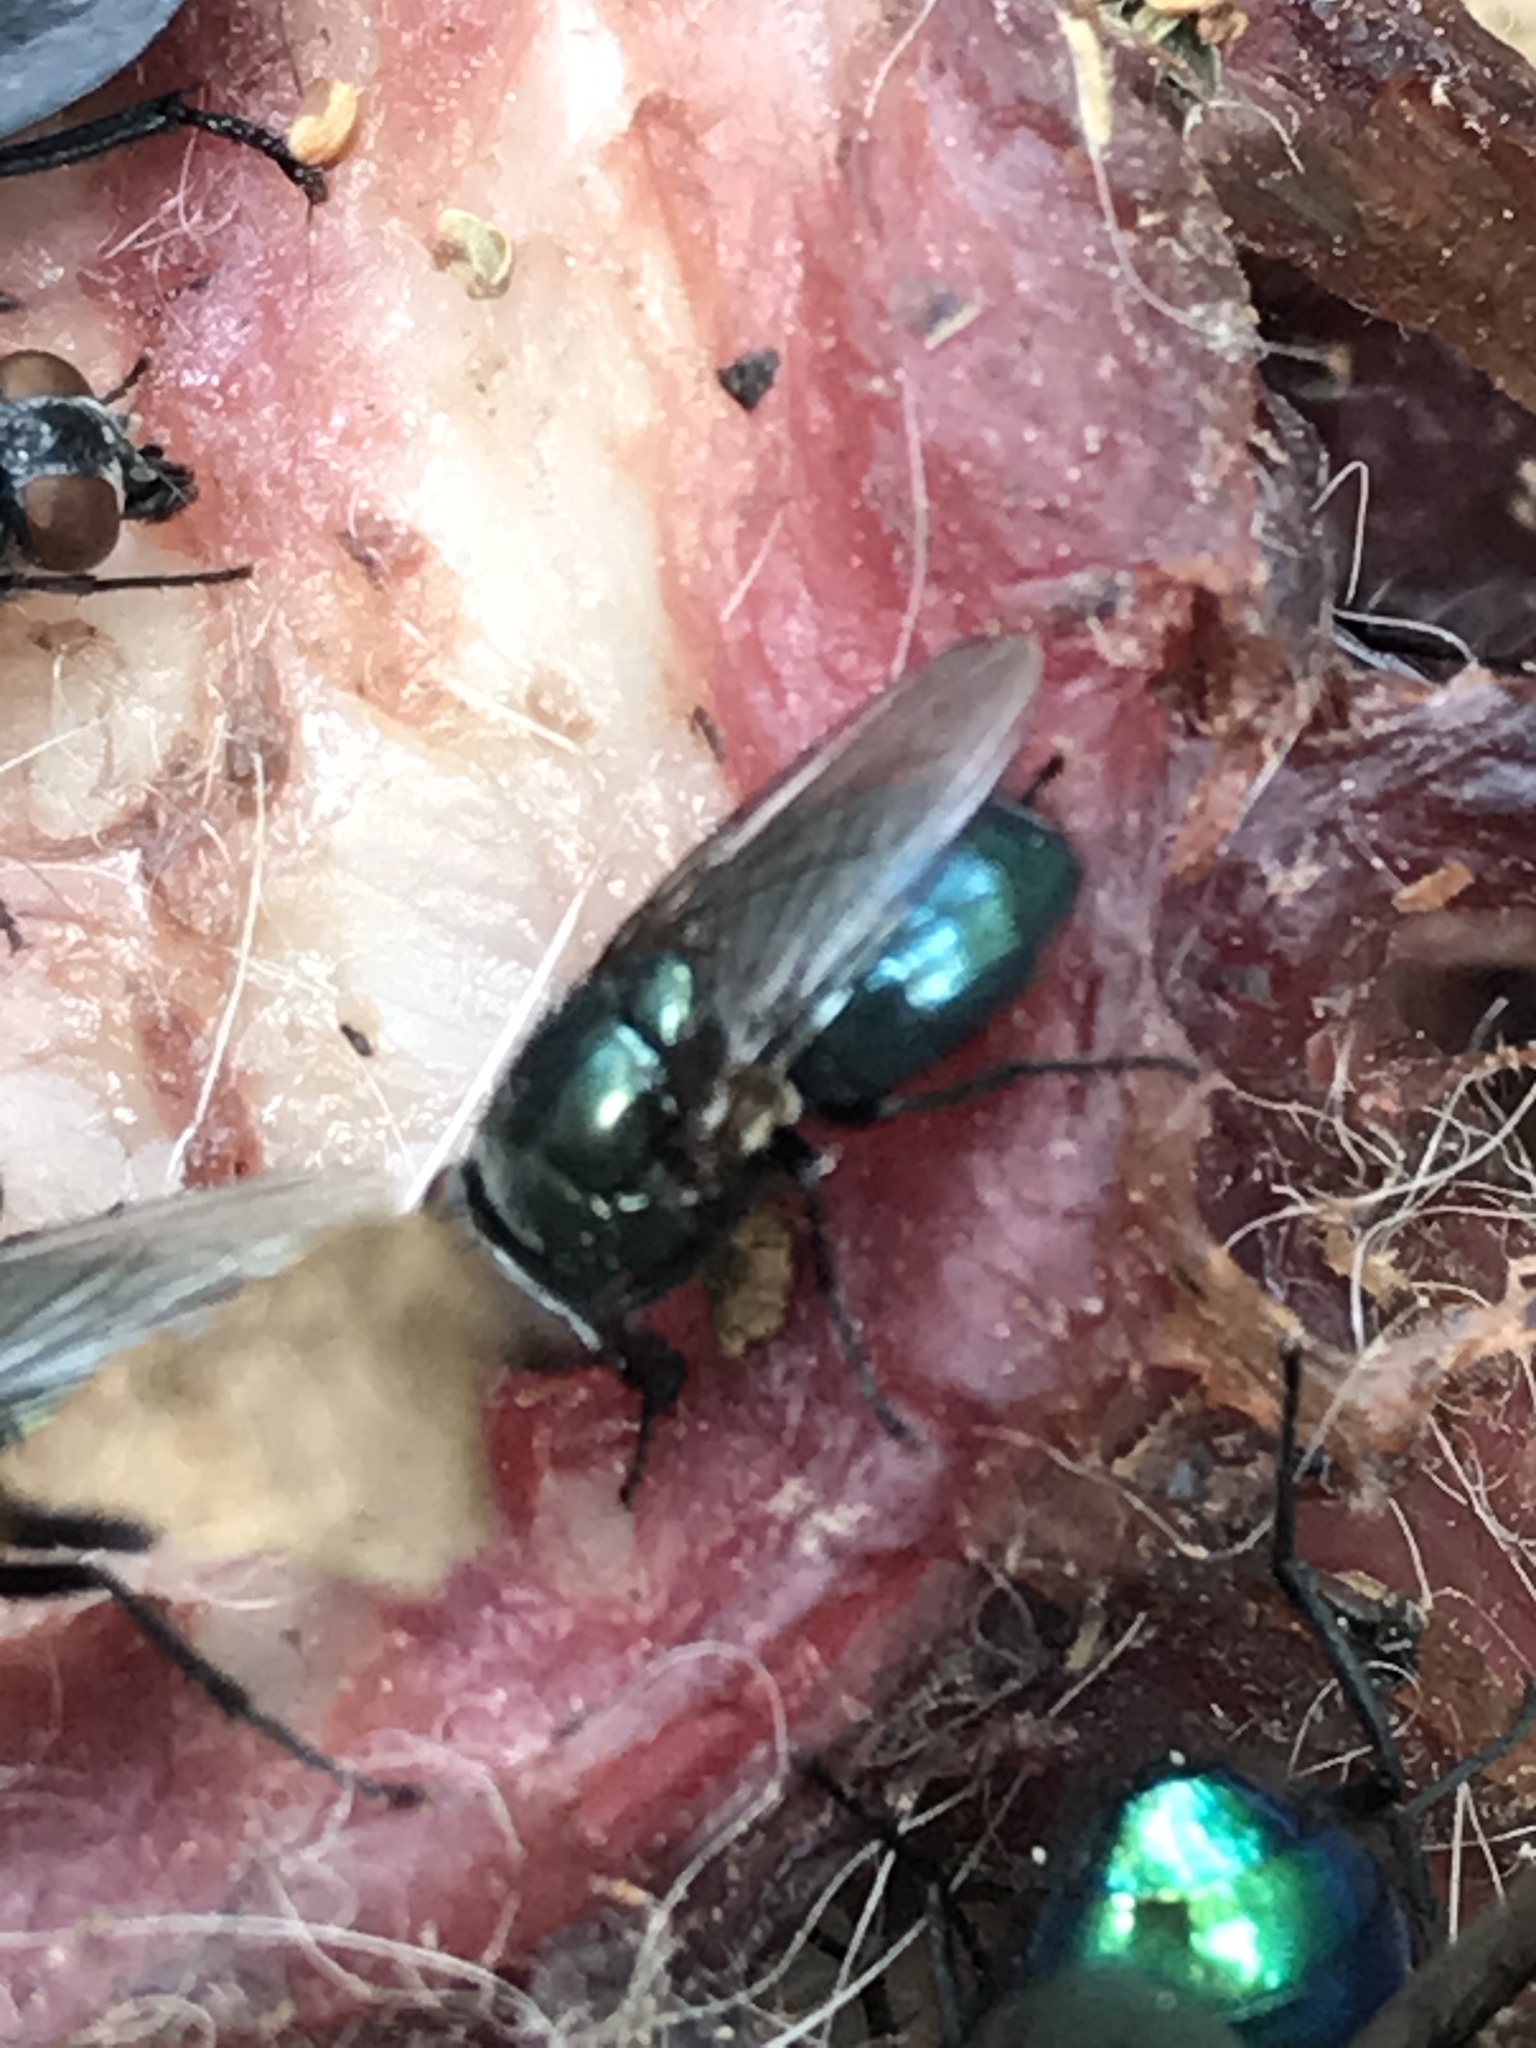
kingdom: Animalia
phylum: Arthropoda
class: Insecta
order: Diptera
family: Calliphoridae
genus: Phormia
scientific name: Phormia regina
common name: Black blow fly
